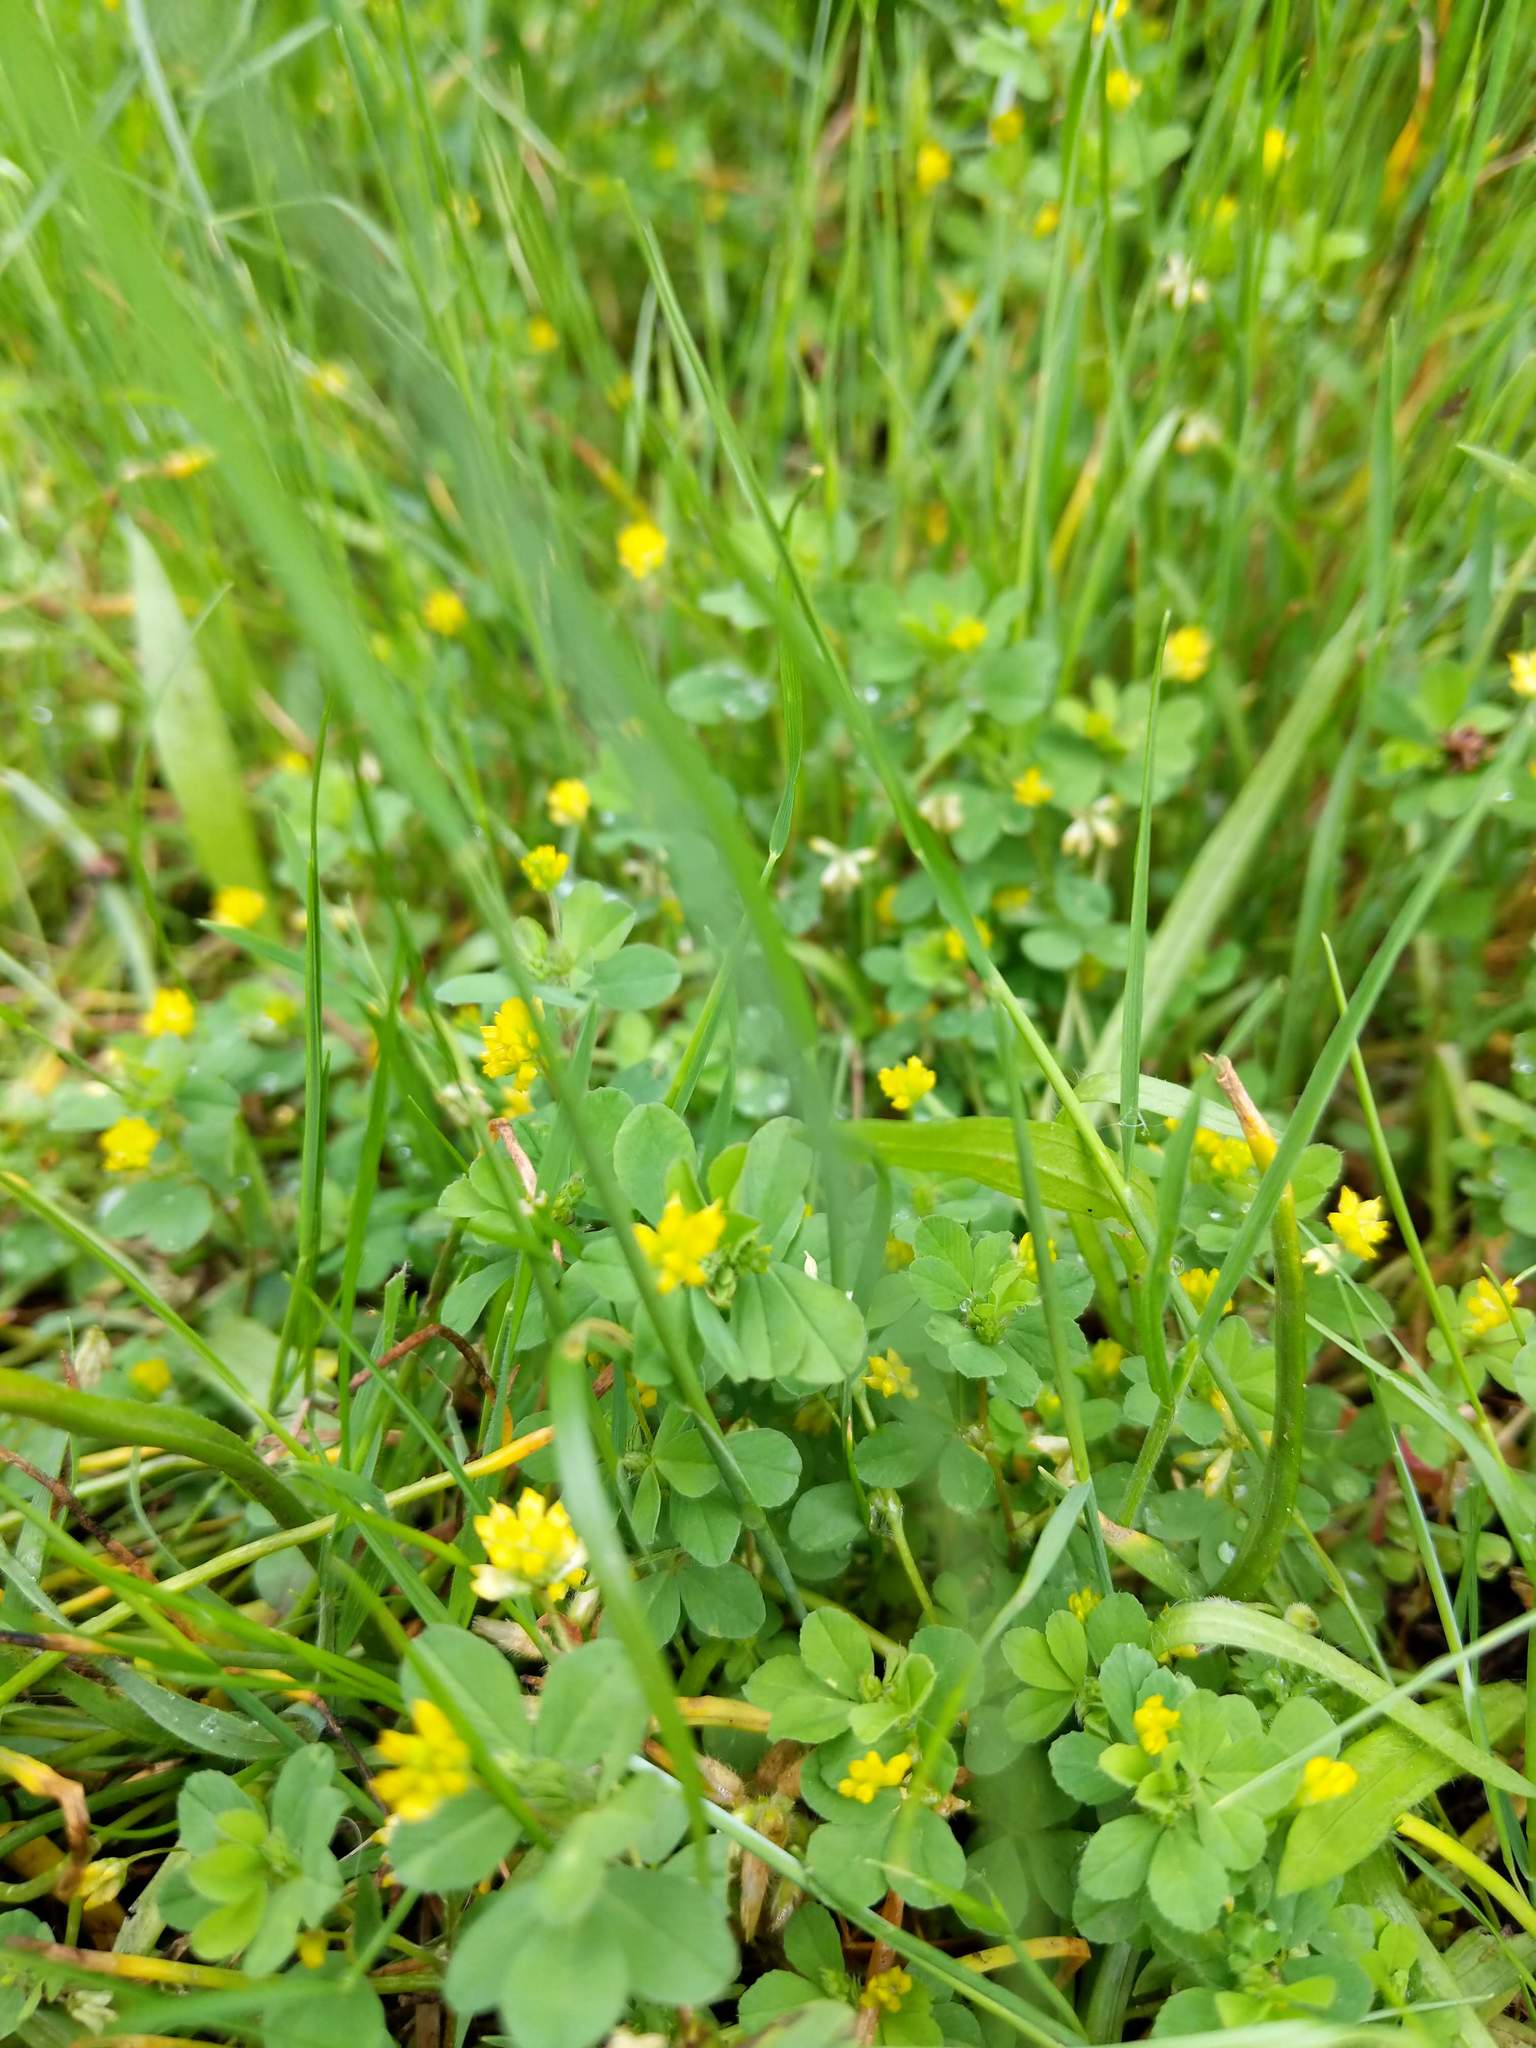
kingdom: Plantae
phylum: Tracheophyta
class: Magnoliopsida
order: Fabales
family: Fabaceae
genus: Trifolium
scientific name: Trifolium dubium
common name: Suckling clover
